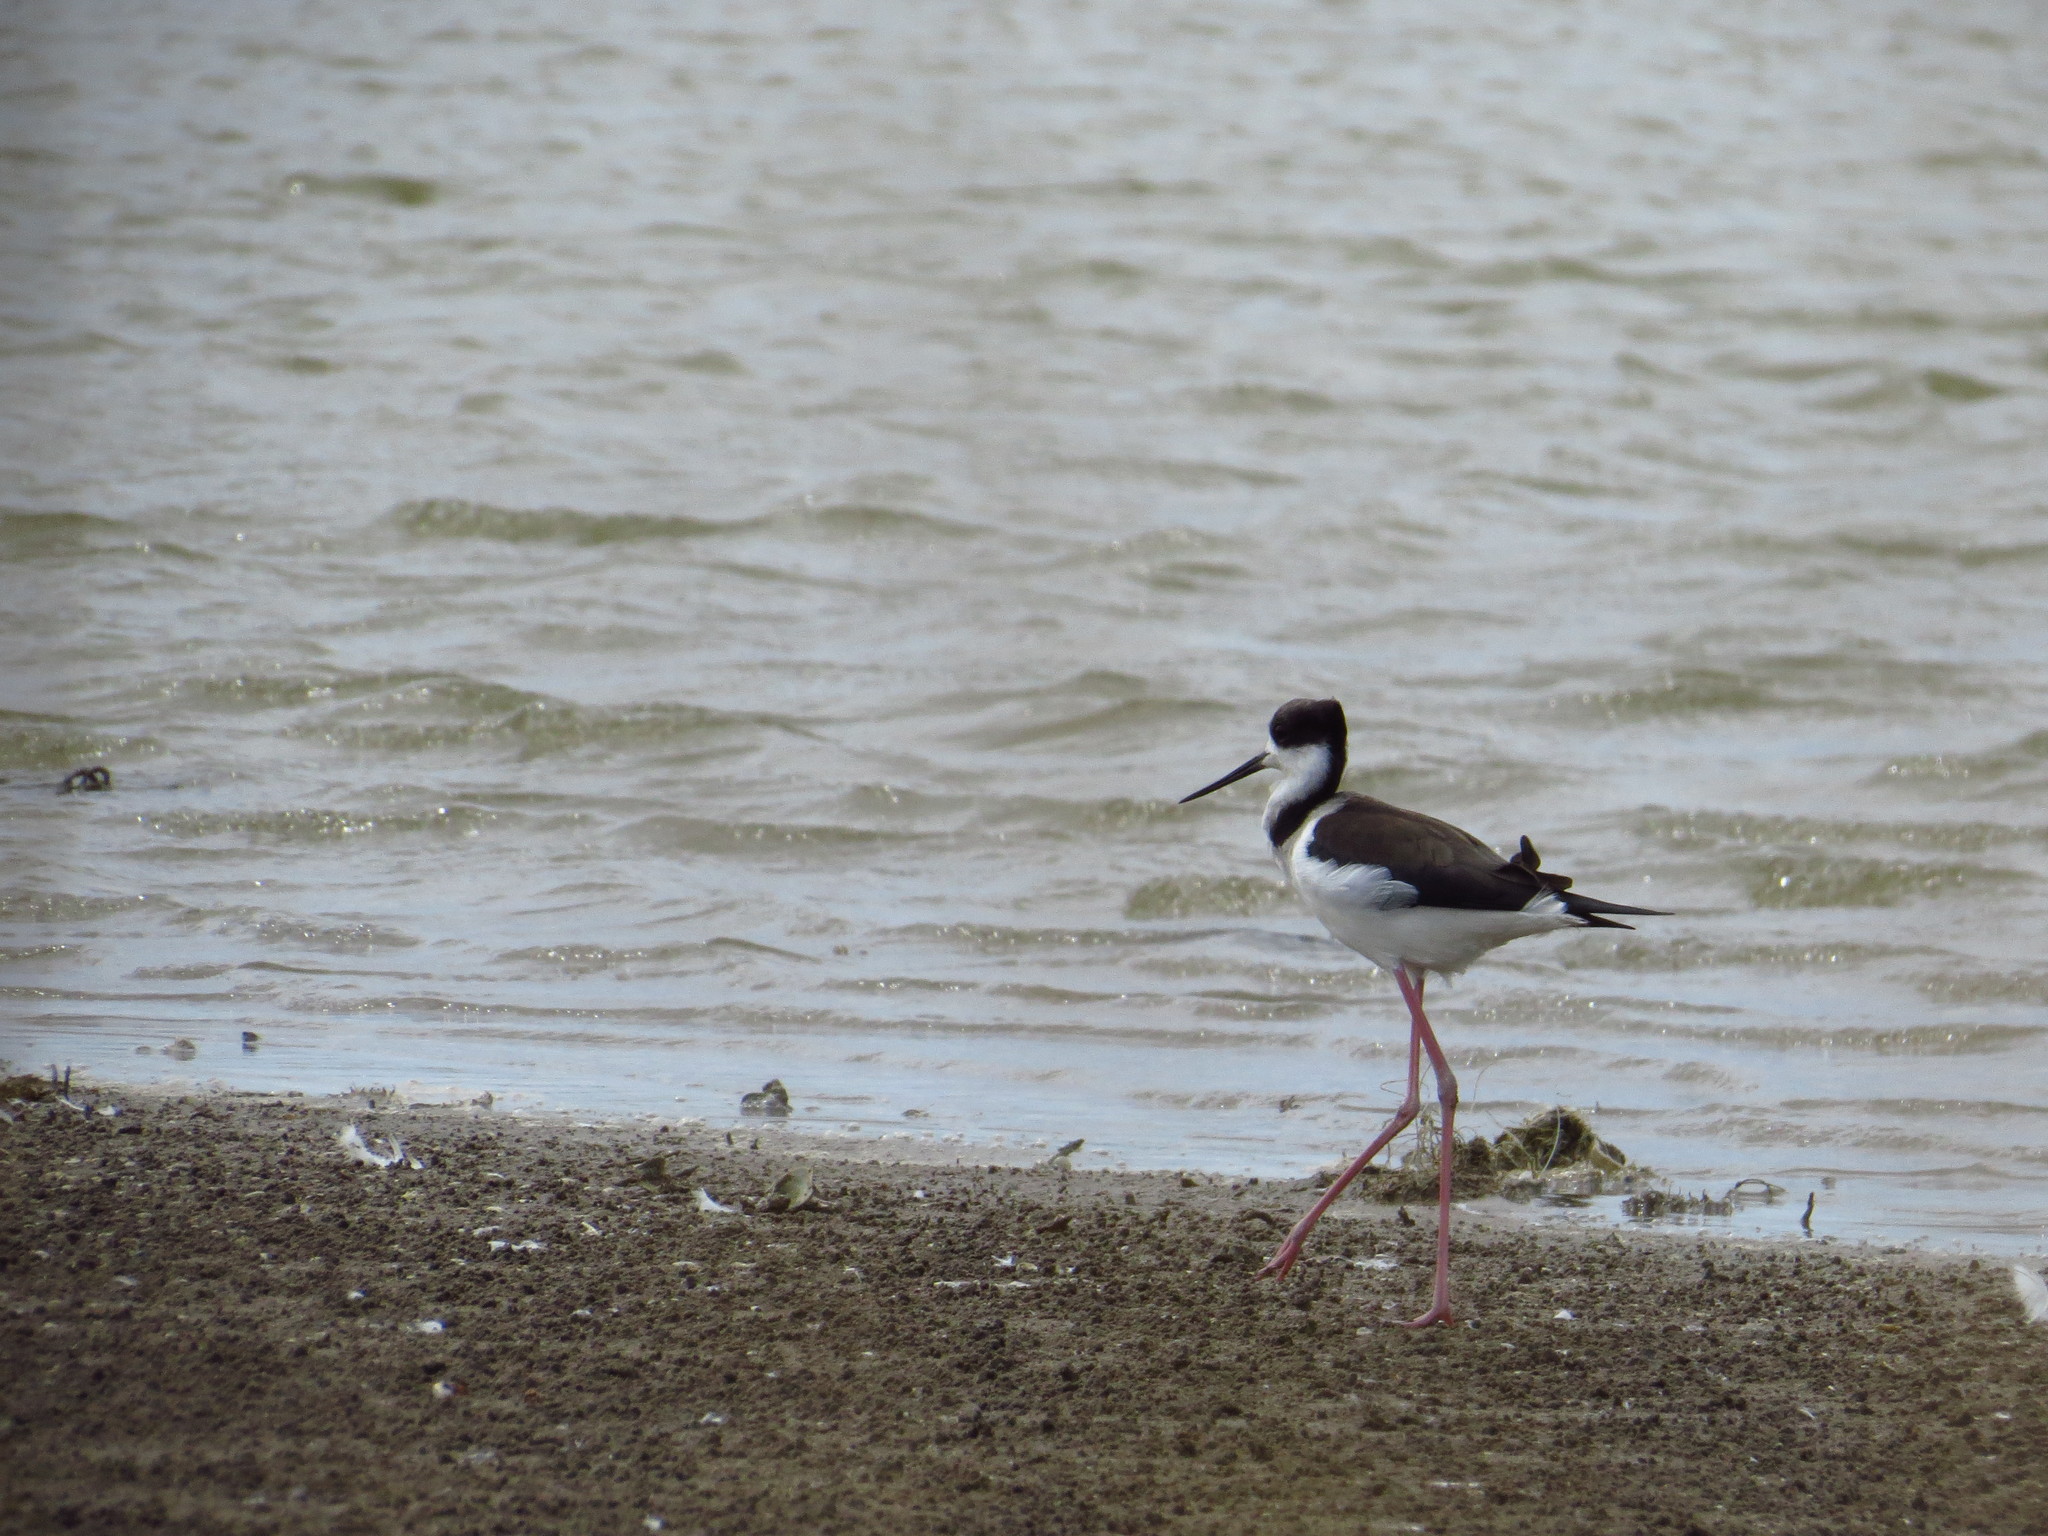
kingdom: Animalia
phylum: Chordata
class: Aves
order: Charadriiformes
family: Recurvirostridae
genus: Himantopus
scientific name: Himantopus mexicanus
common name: Black-necked stilt
